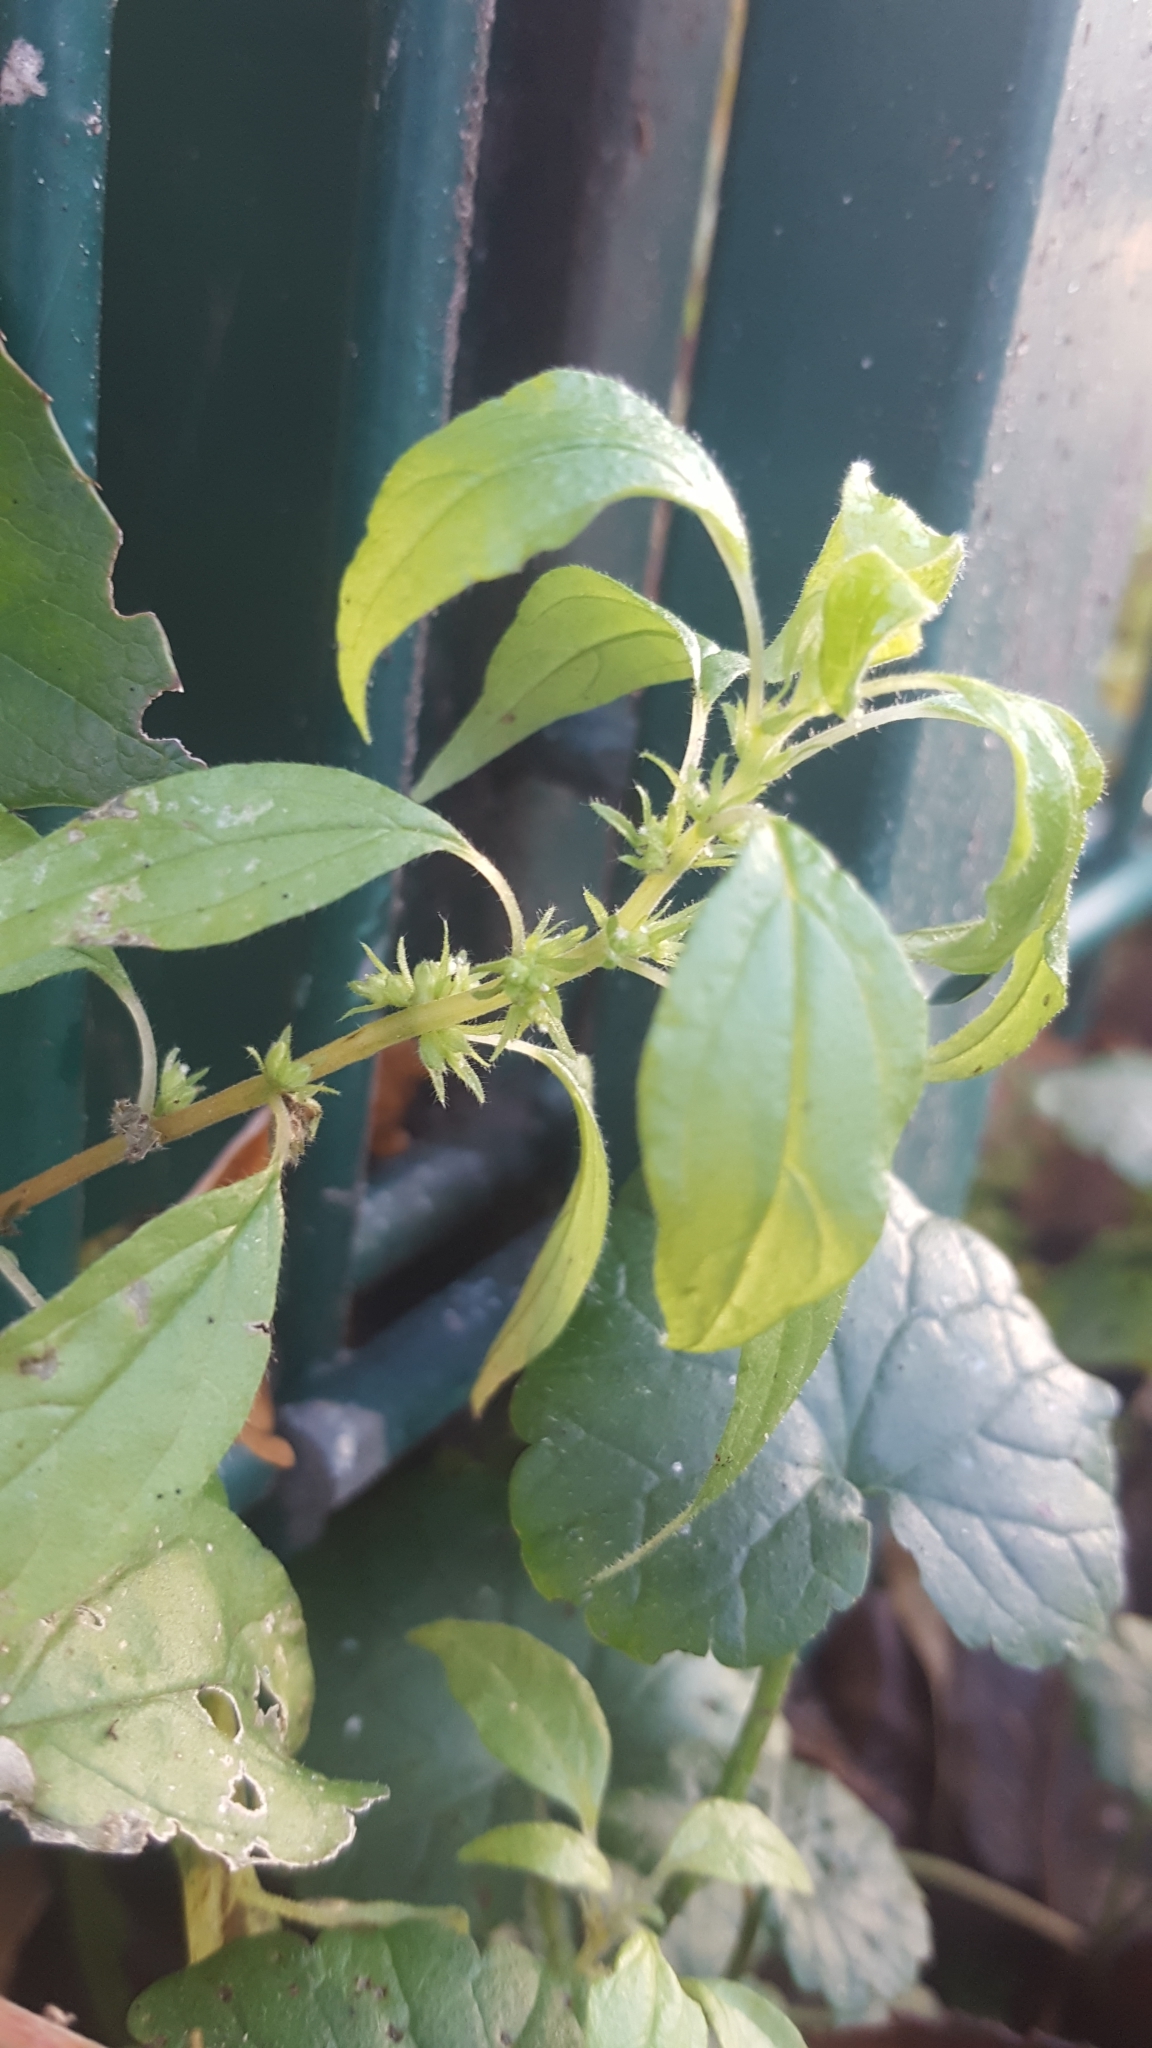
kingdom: Plantae
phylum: Tracheophyta
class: Magnoliopsida
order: Rosales
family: Urticaceae
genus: Parietaria
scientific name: Parietaria pensylvanica
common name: Pennsylvania pellitory
